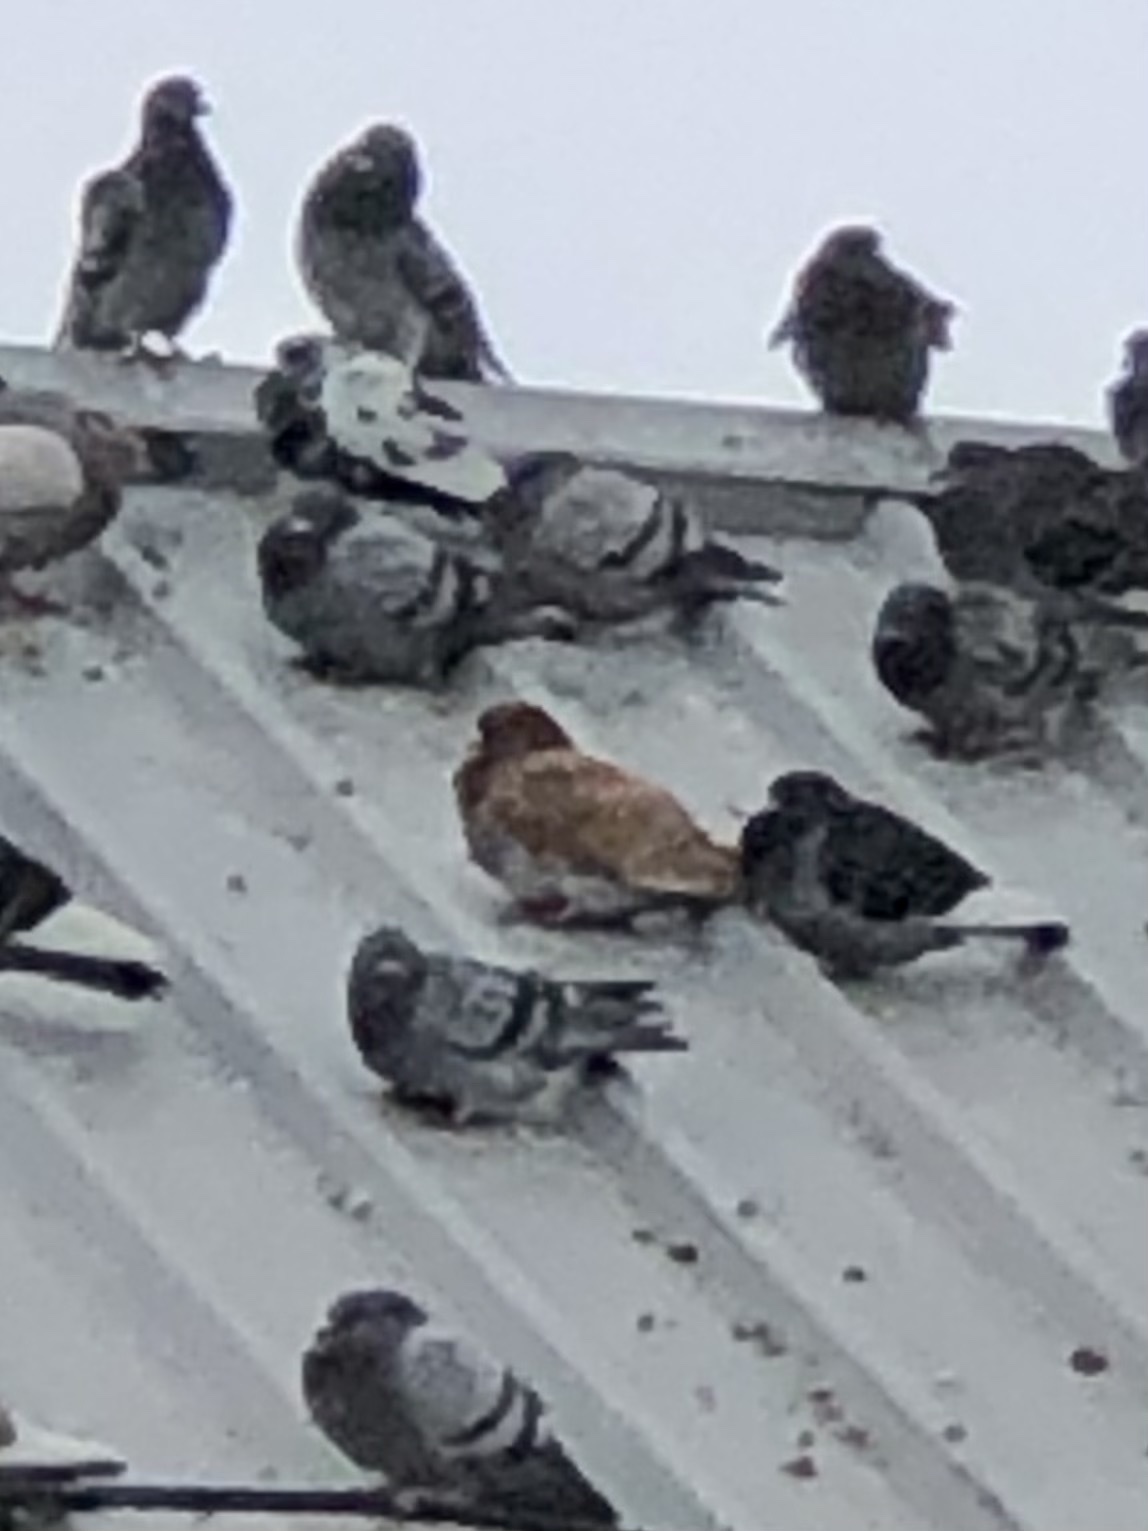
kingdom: Animalia
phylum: Chordata
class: Aves
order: Columbiformes
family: Columbidae
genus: Columba
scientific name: Columba livia
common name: Rock pigeon
